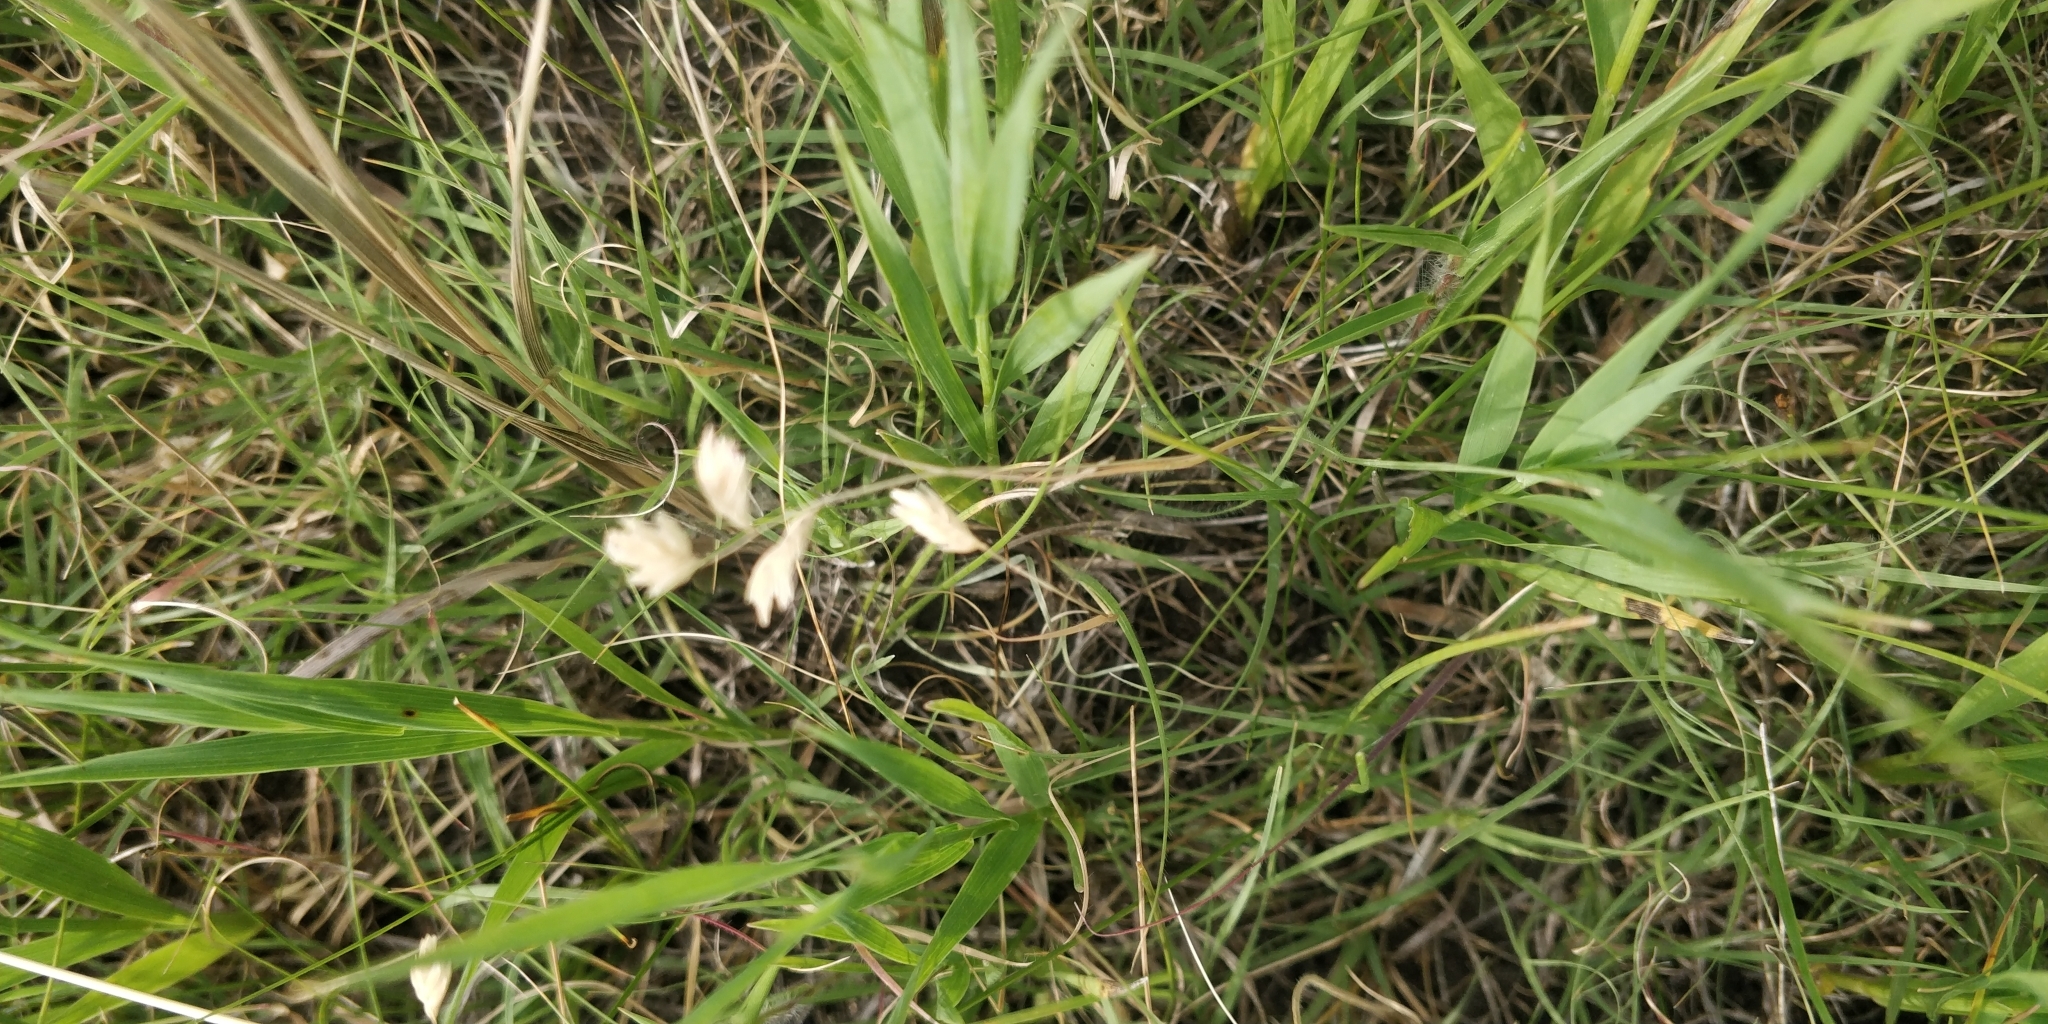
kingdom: Plantae
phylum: Tracheophyta
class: Liliopsida
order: Poales
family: Poaceae
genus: Bouteloua
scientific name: Bouteloua dactyloides
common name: Buffalo grass
